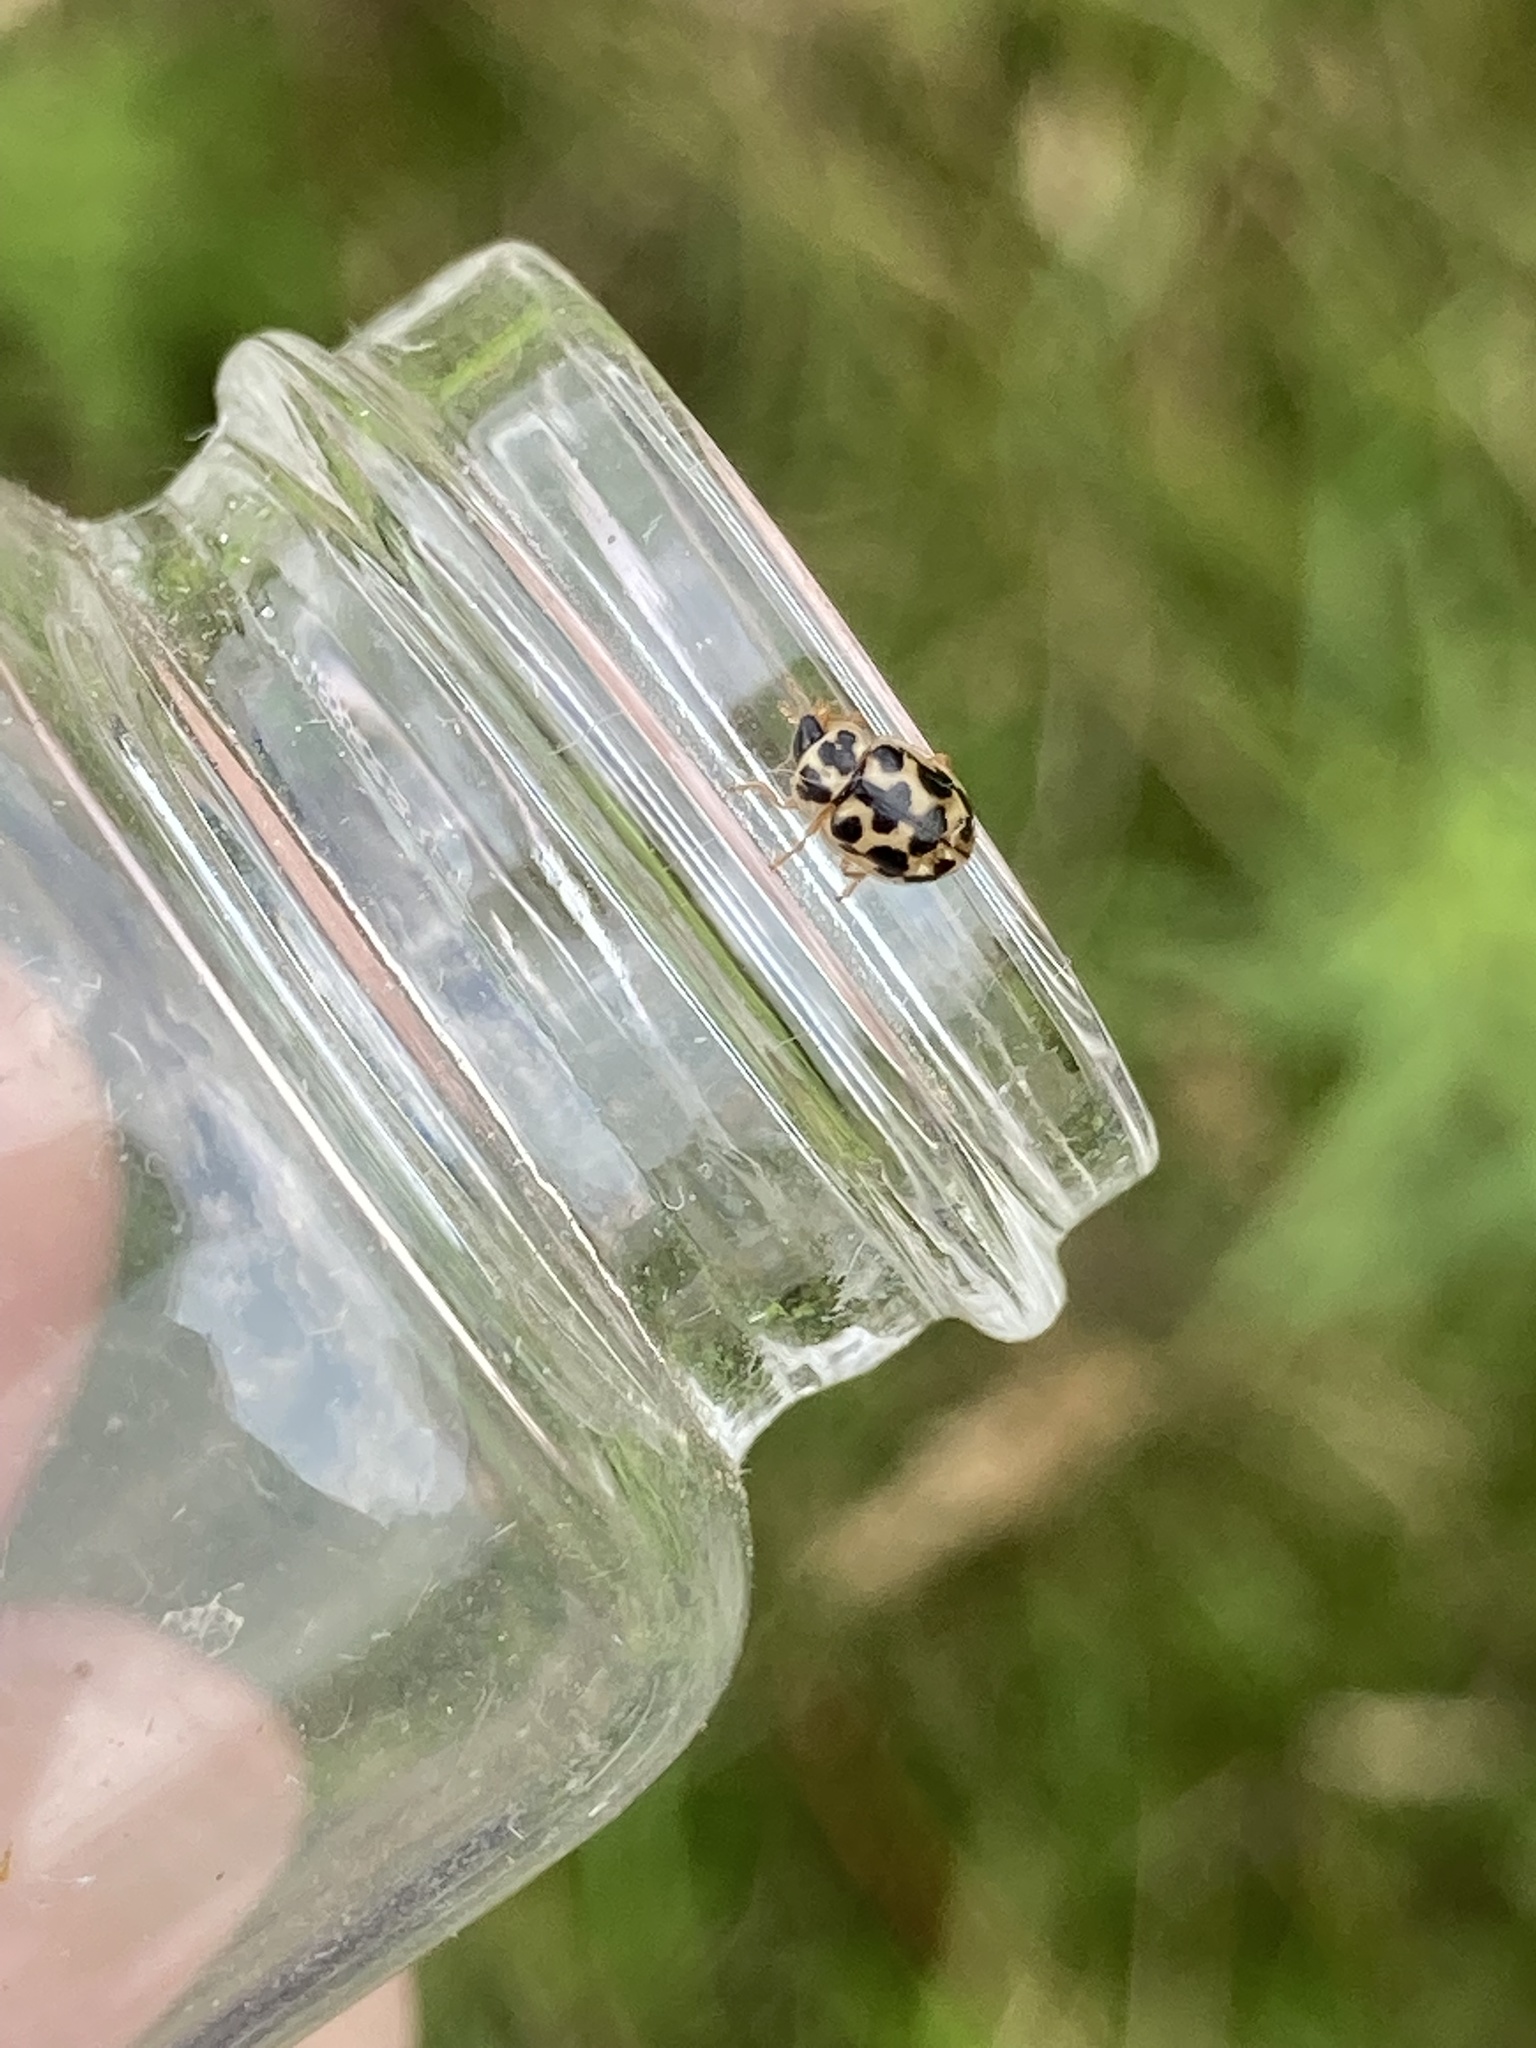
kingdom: Animalia
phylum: Arthropoda
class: Insecta
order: Coleoptera
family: Coccinellidae
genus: Anisosticta
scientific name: Anisosticta bitriangularis
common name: Marsh lady beetle
